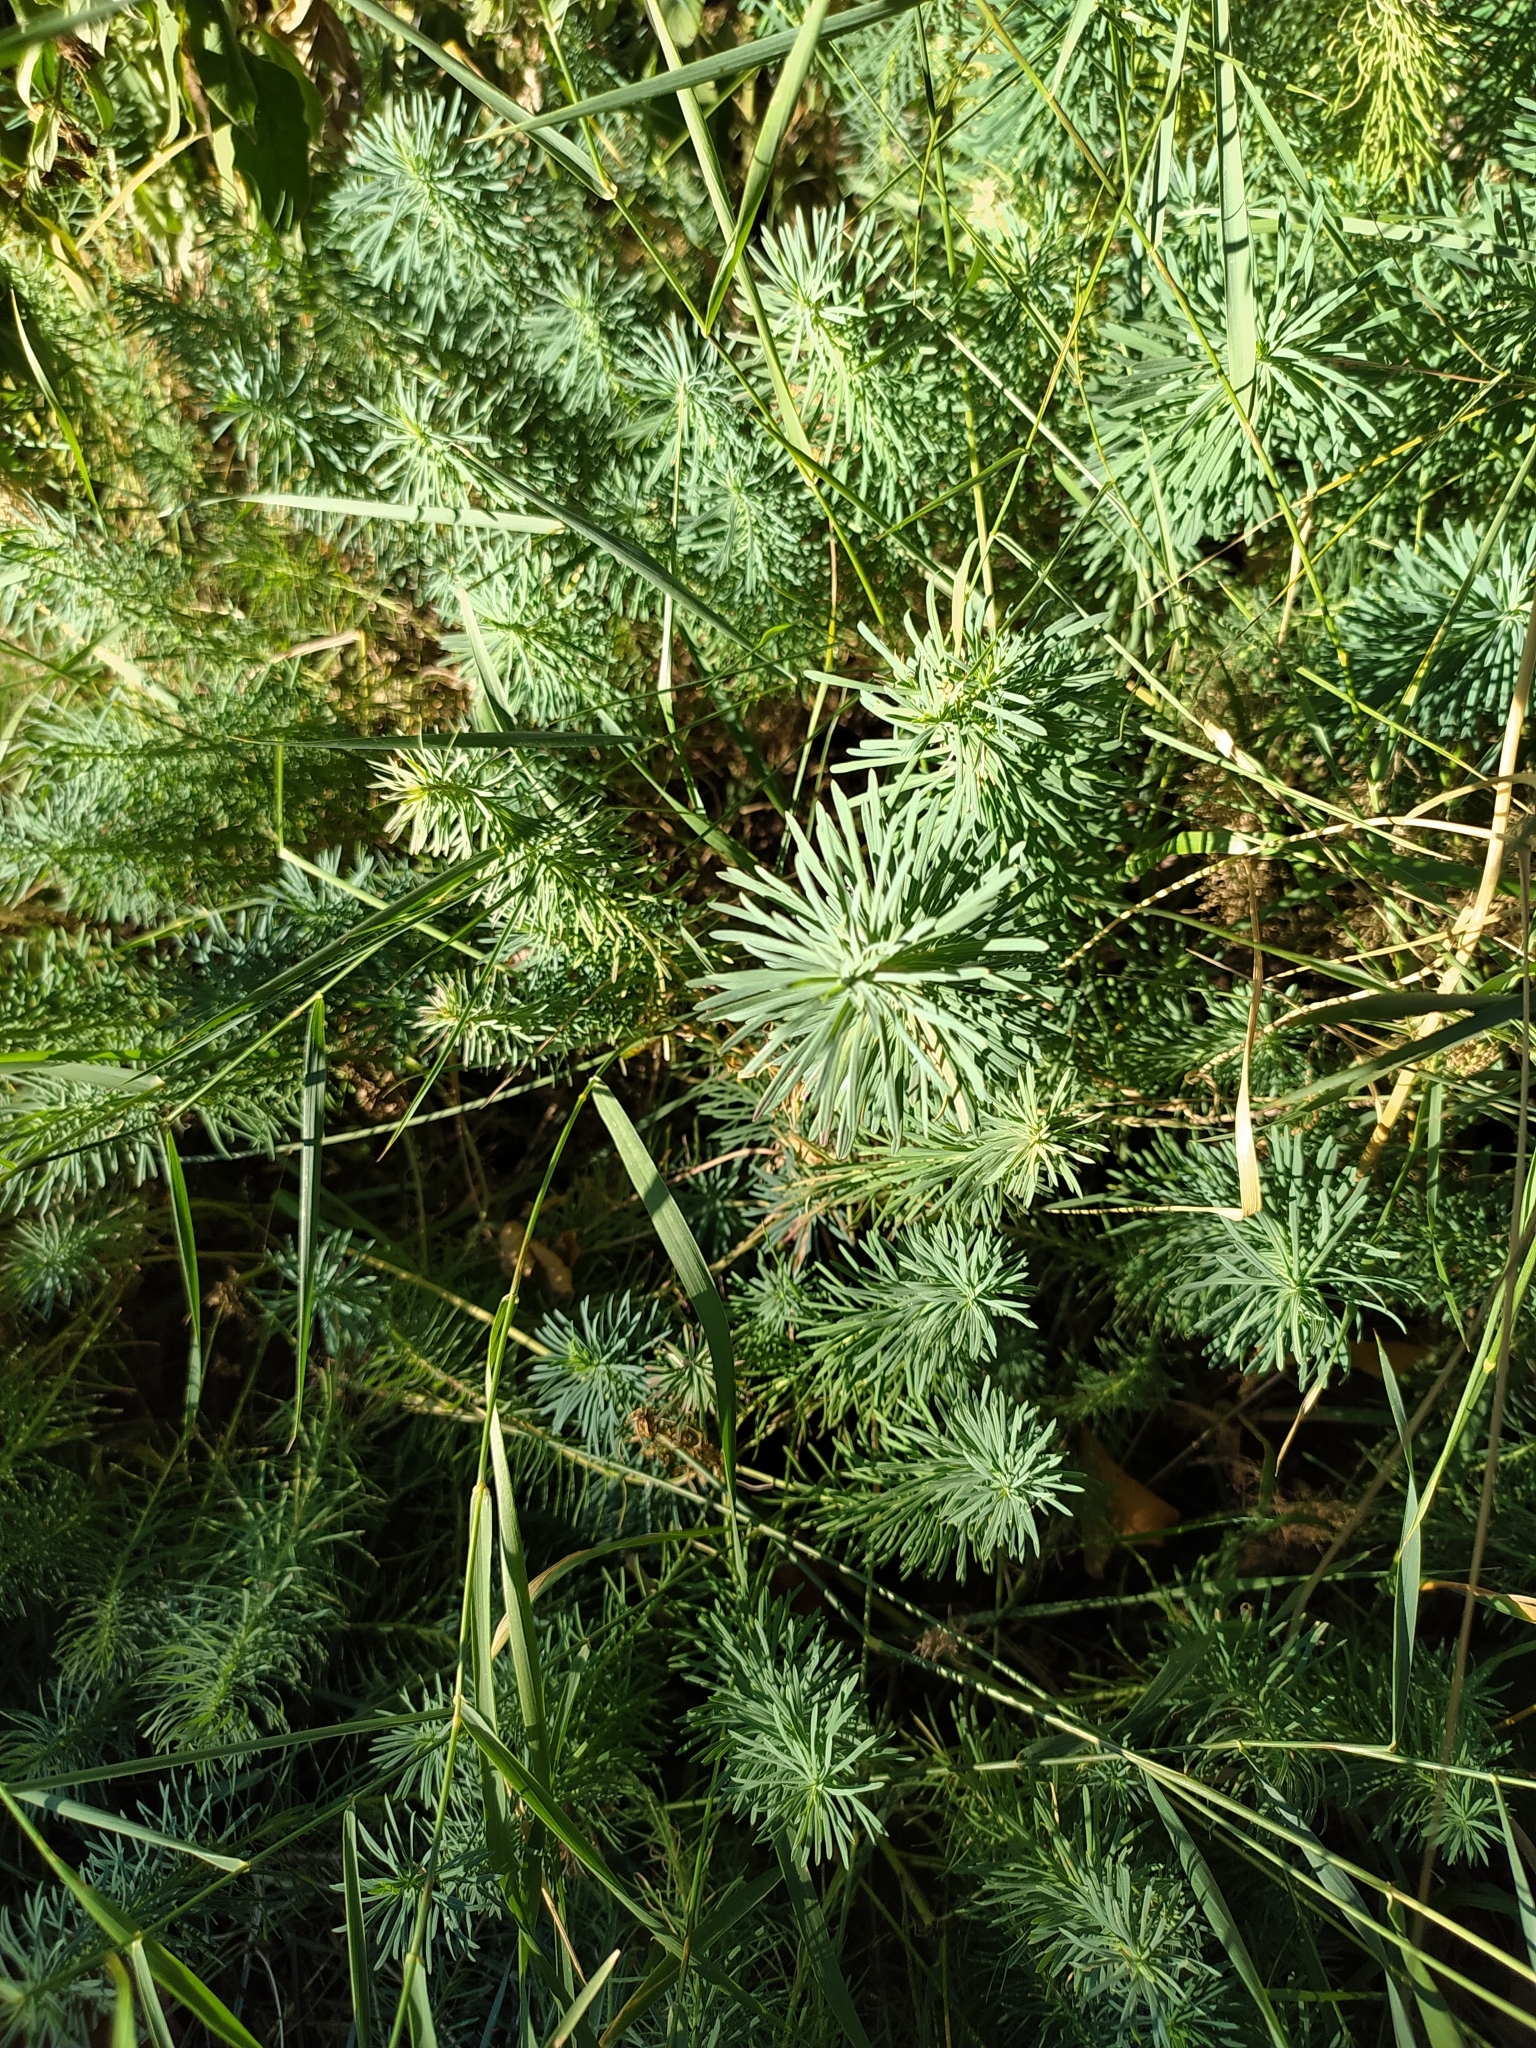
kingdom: Plantae
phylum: Tracheophyta
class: Magnoliopsida
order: Malpighiales
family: Euphorbiaceae
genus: Euphorbia
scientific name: Euphorbia cyparissias
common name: Cypress spurge
